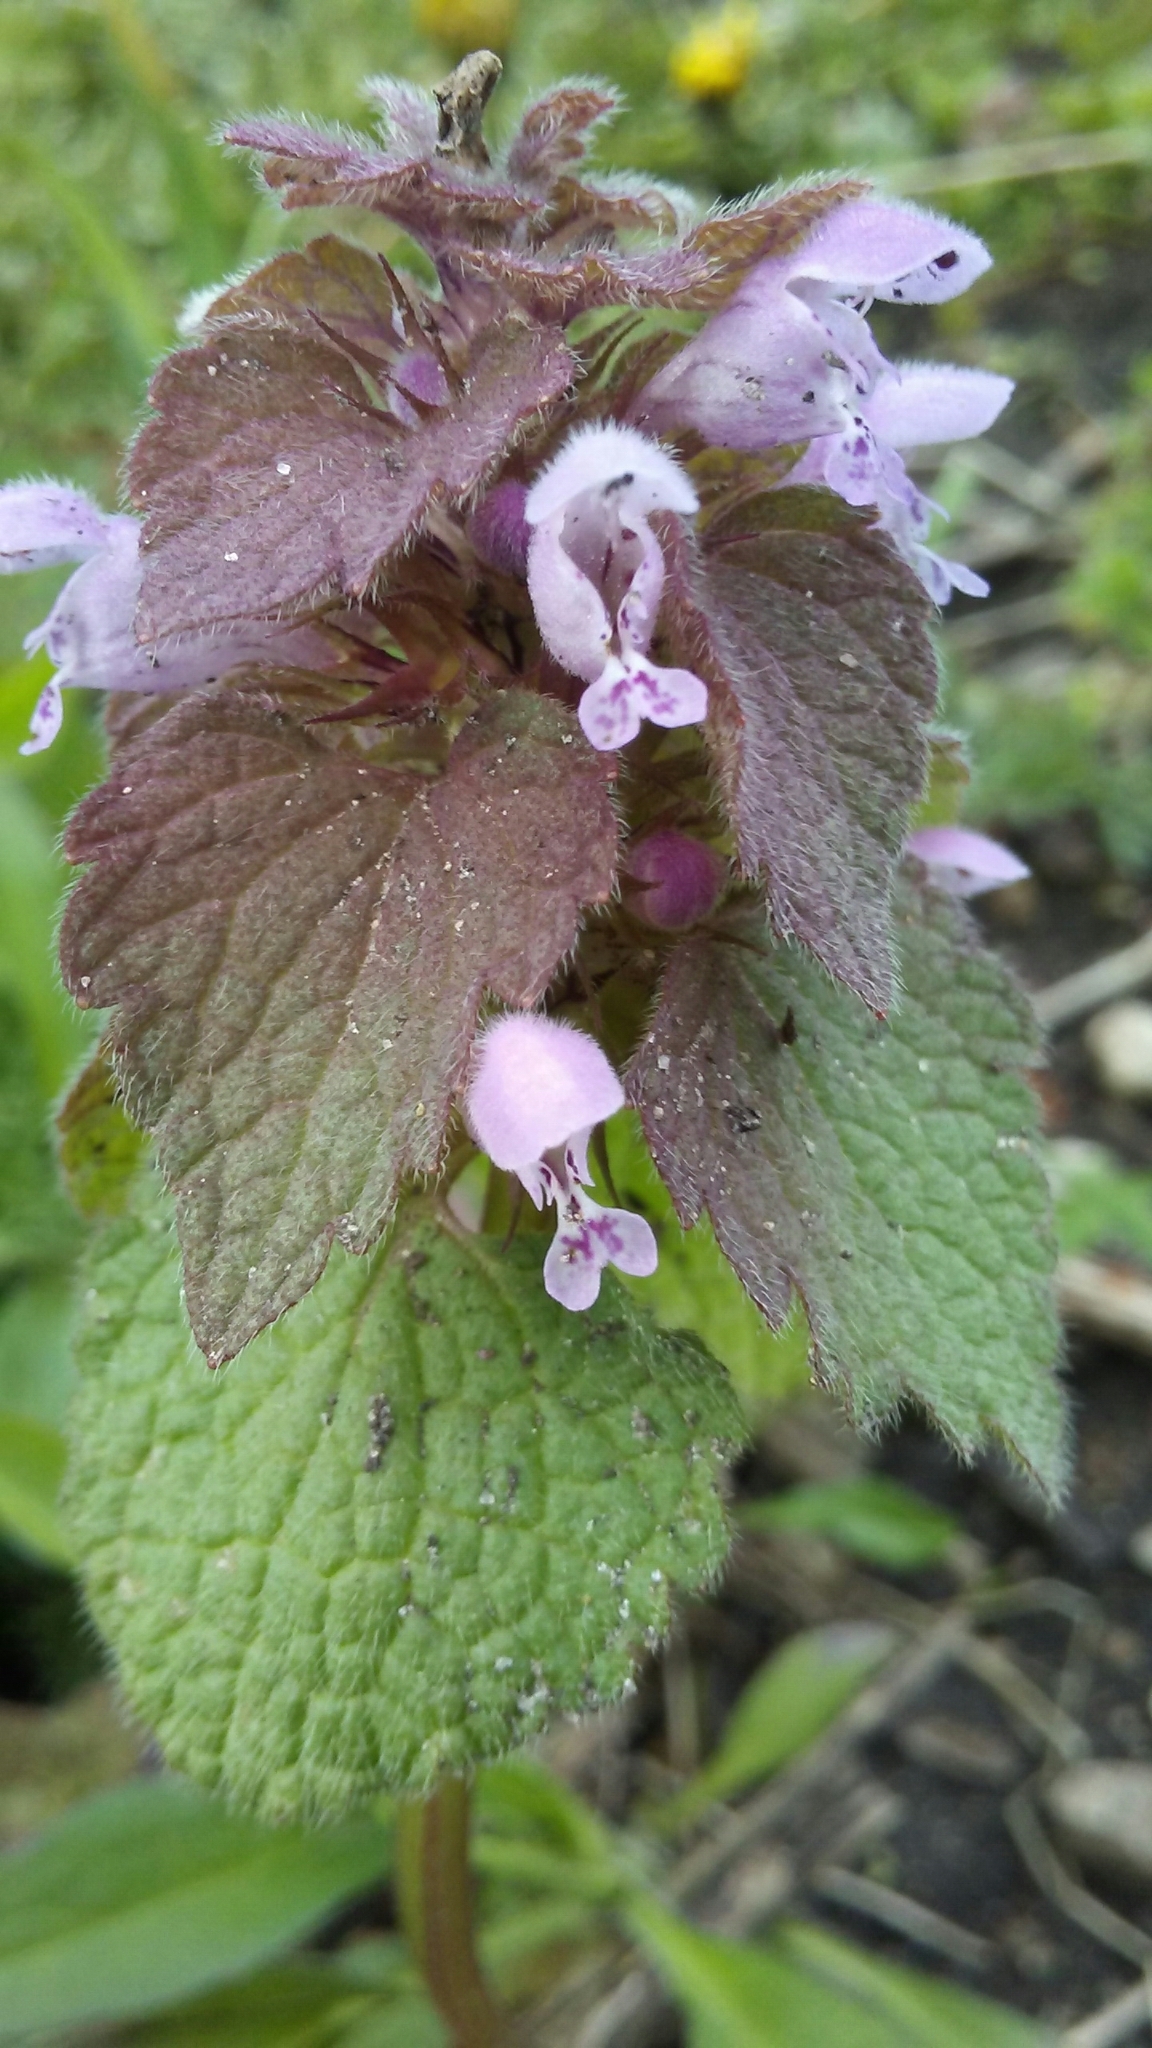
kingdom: Plantae
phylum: Tracheophyta
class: Magnoliopsida
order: Lamiales
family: Lamiaceae
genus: Lamium
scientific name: Lamium purpureum
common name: Red dead-nettle
